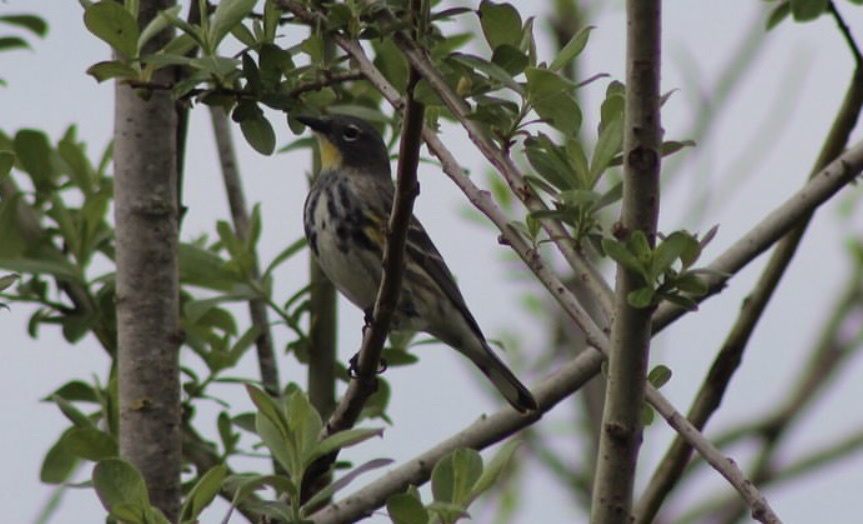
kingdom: Animalia
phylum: Chordata
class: Aves
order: Passeriformes
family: Parulidae
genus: Setophaga
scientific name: Setophaga auduboni
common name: Audubon's warbler
